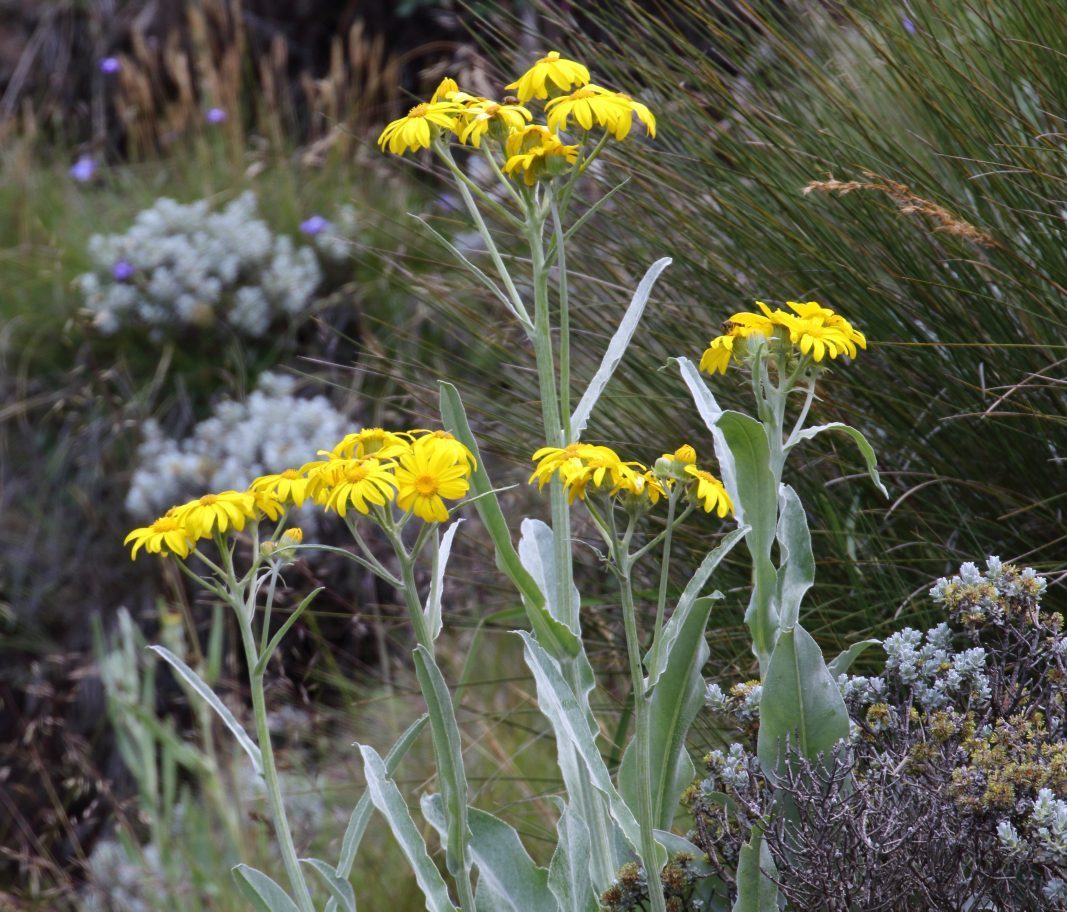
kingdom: Plantae
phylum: Tracheophyta
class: Magnoliopsida
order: Asterales
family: Asteraceae
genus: Senecio
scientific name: Senecio macrospermus
